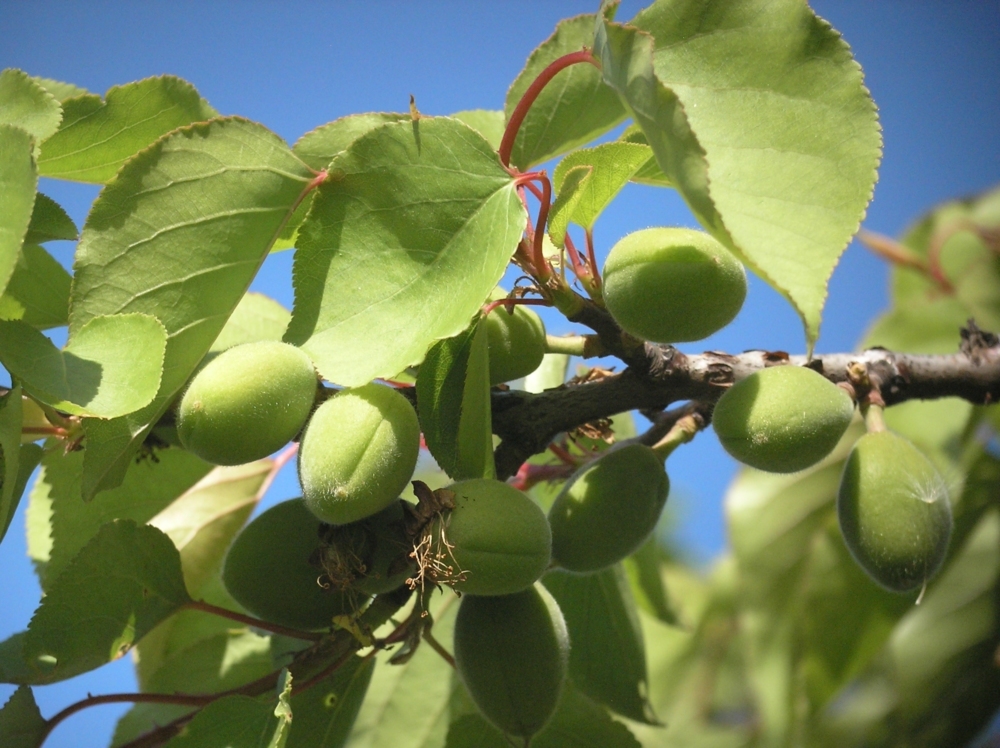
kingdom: Plantae
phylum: Tracheophyta
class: Magnoliopsida
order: Rosales
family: Rosaceae
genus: Prunus
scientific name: Prunus armeniaca
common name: Apricot
